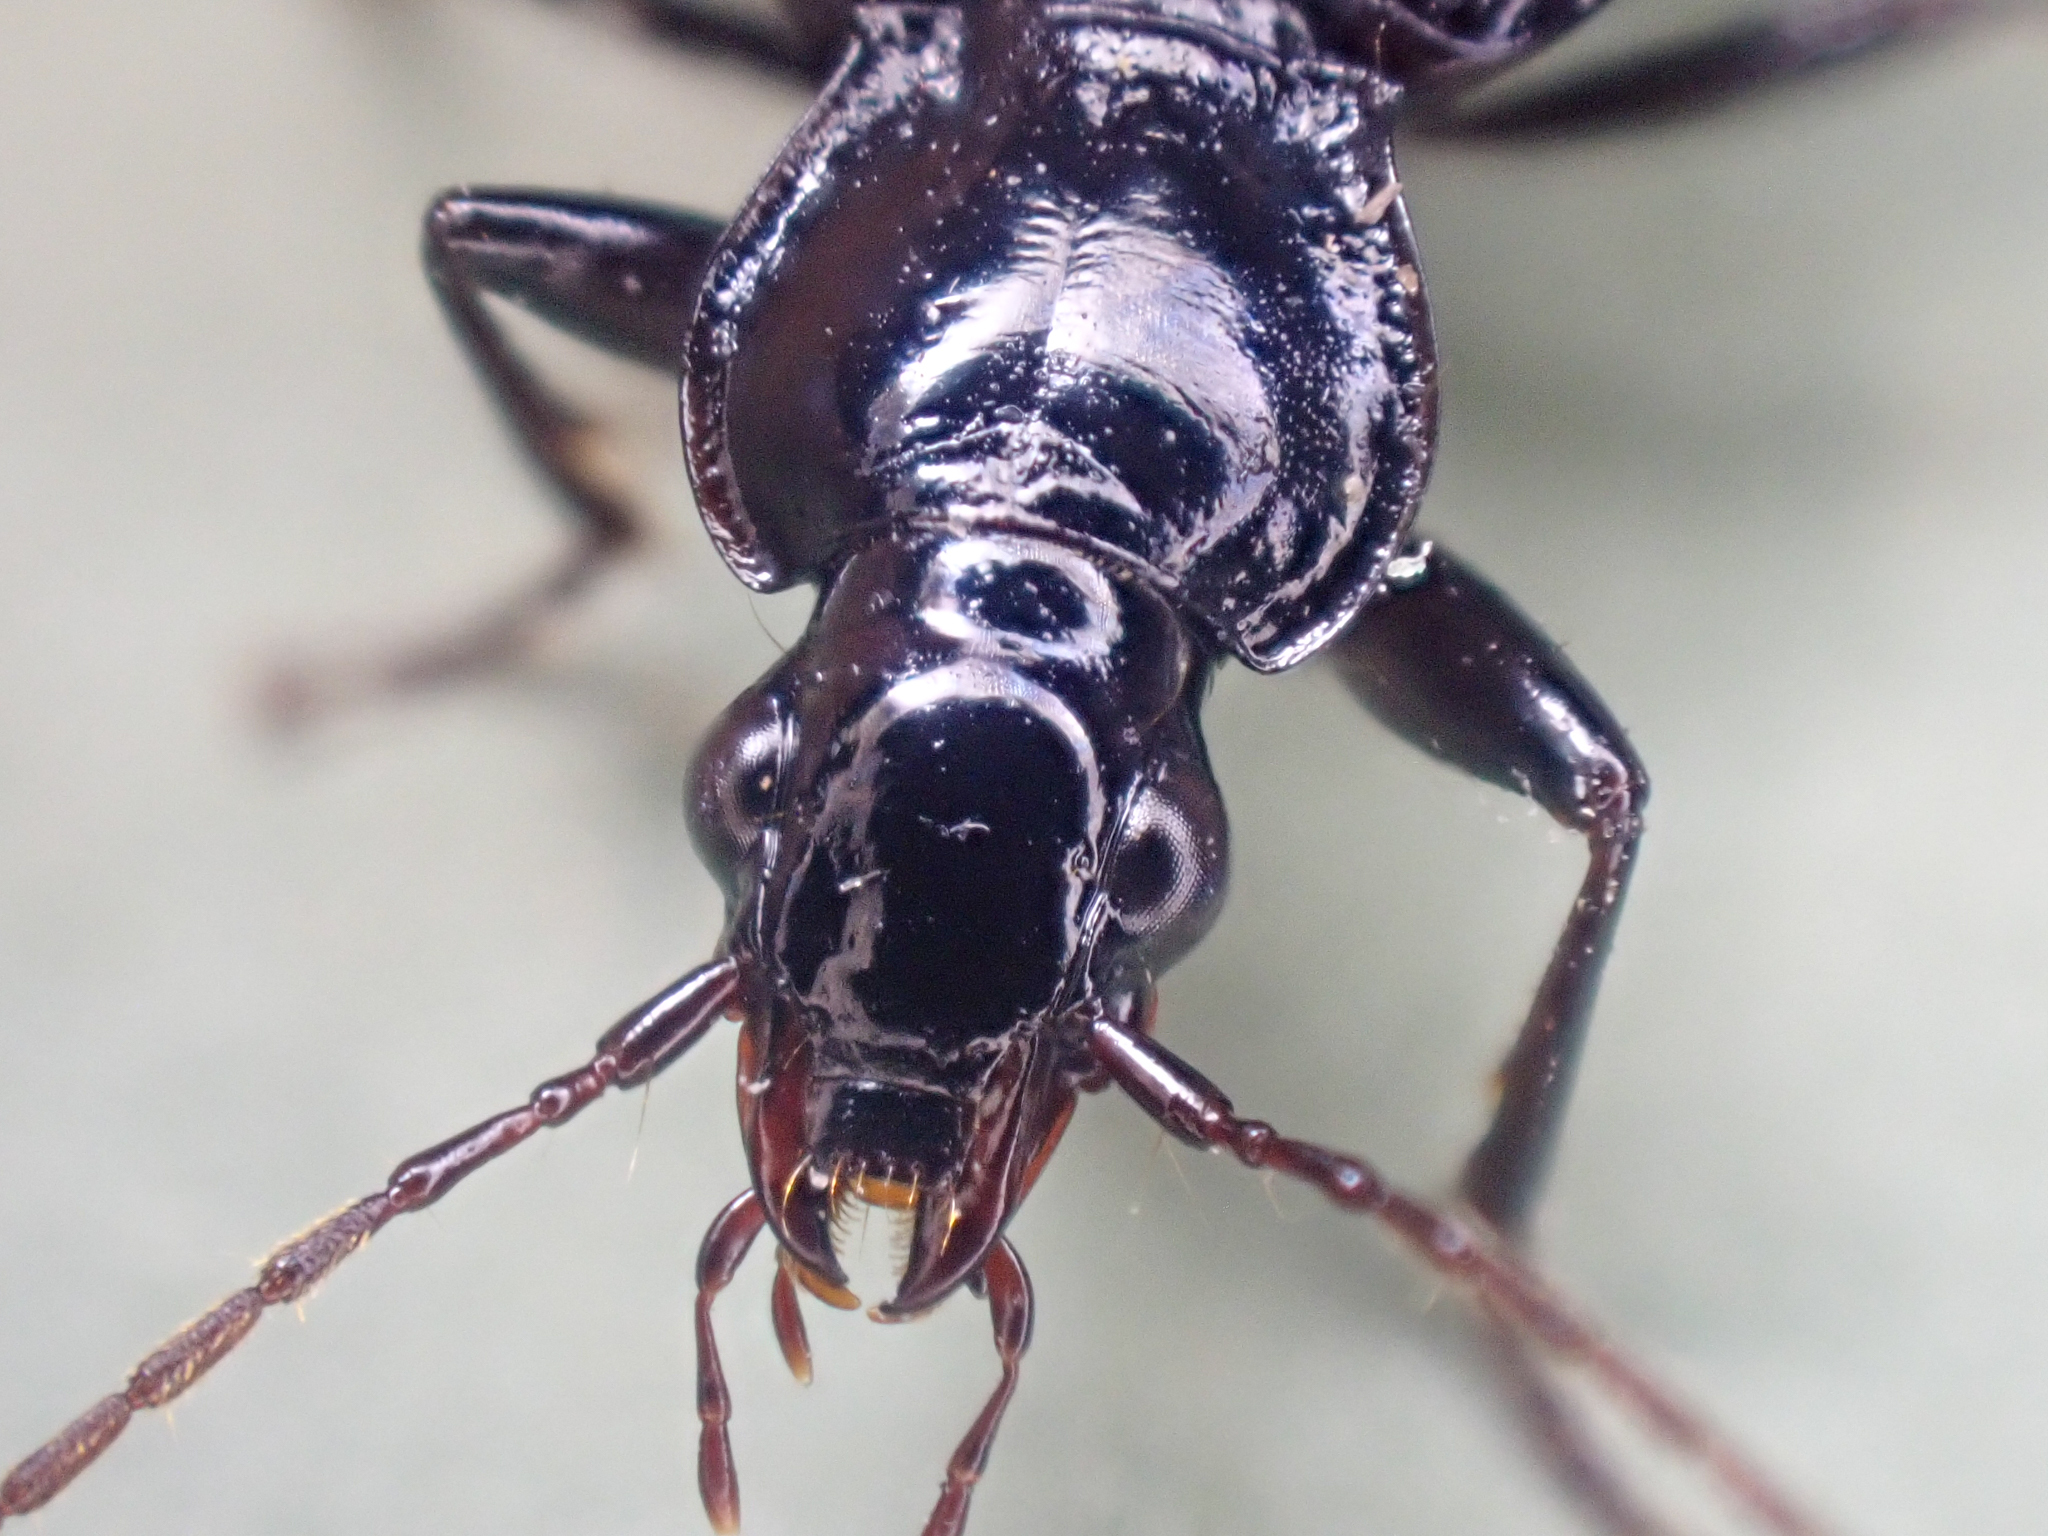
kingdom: Animalia
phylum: Arthropoda
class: Insecta
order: Coleoptera
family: Carabidae
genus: Platynus
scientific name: Platynus decentis
